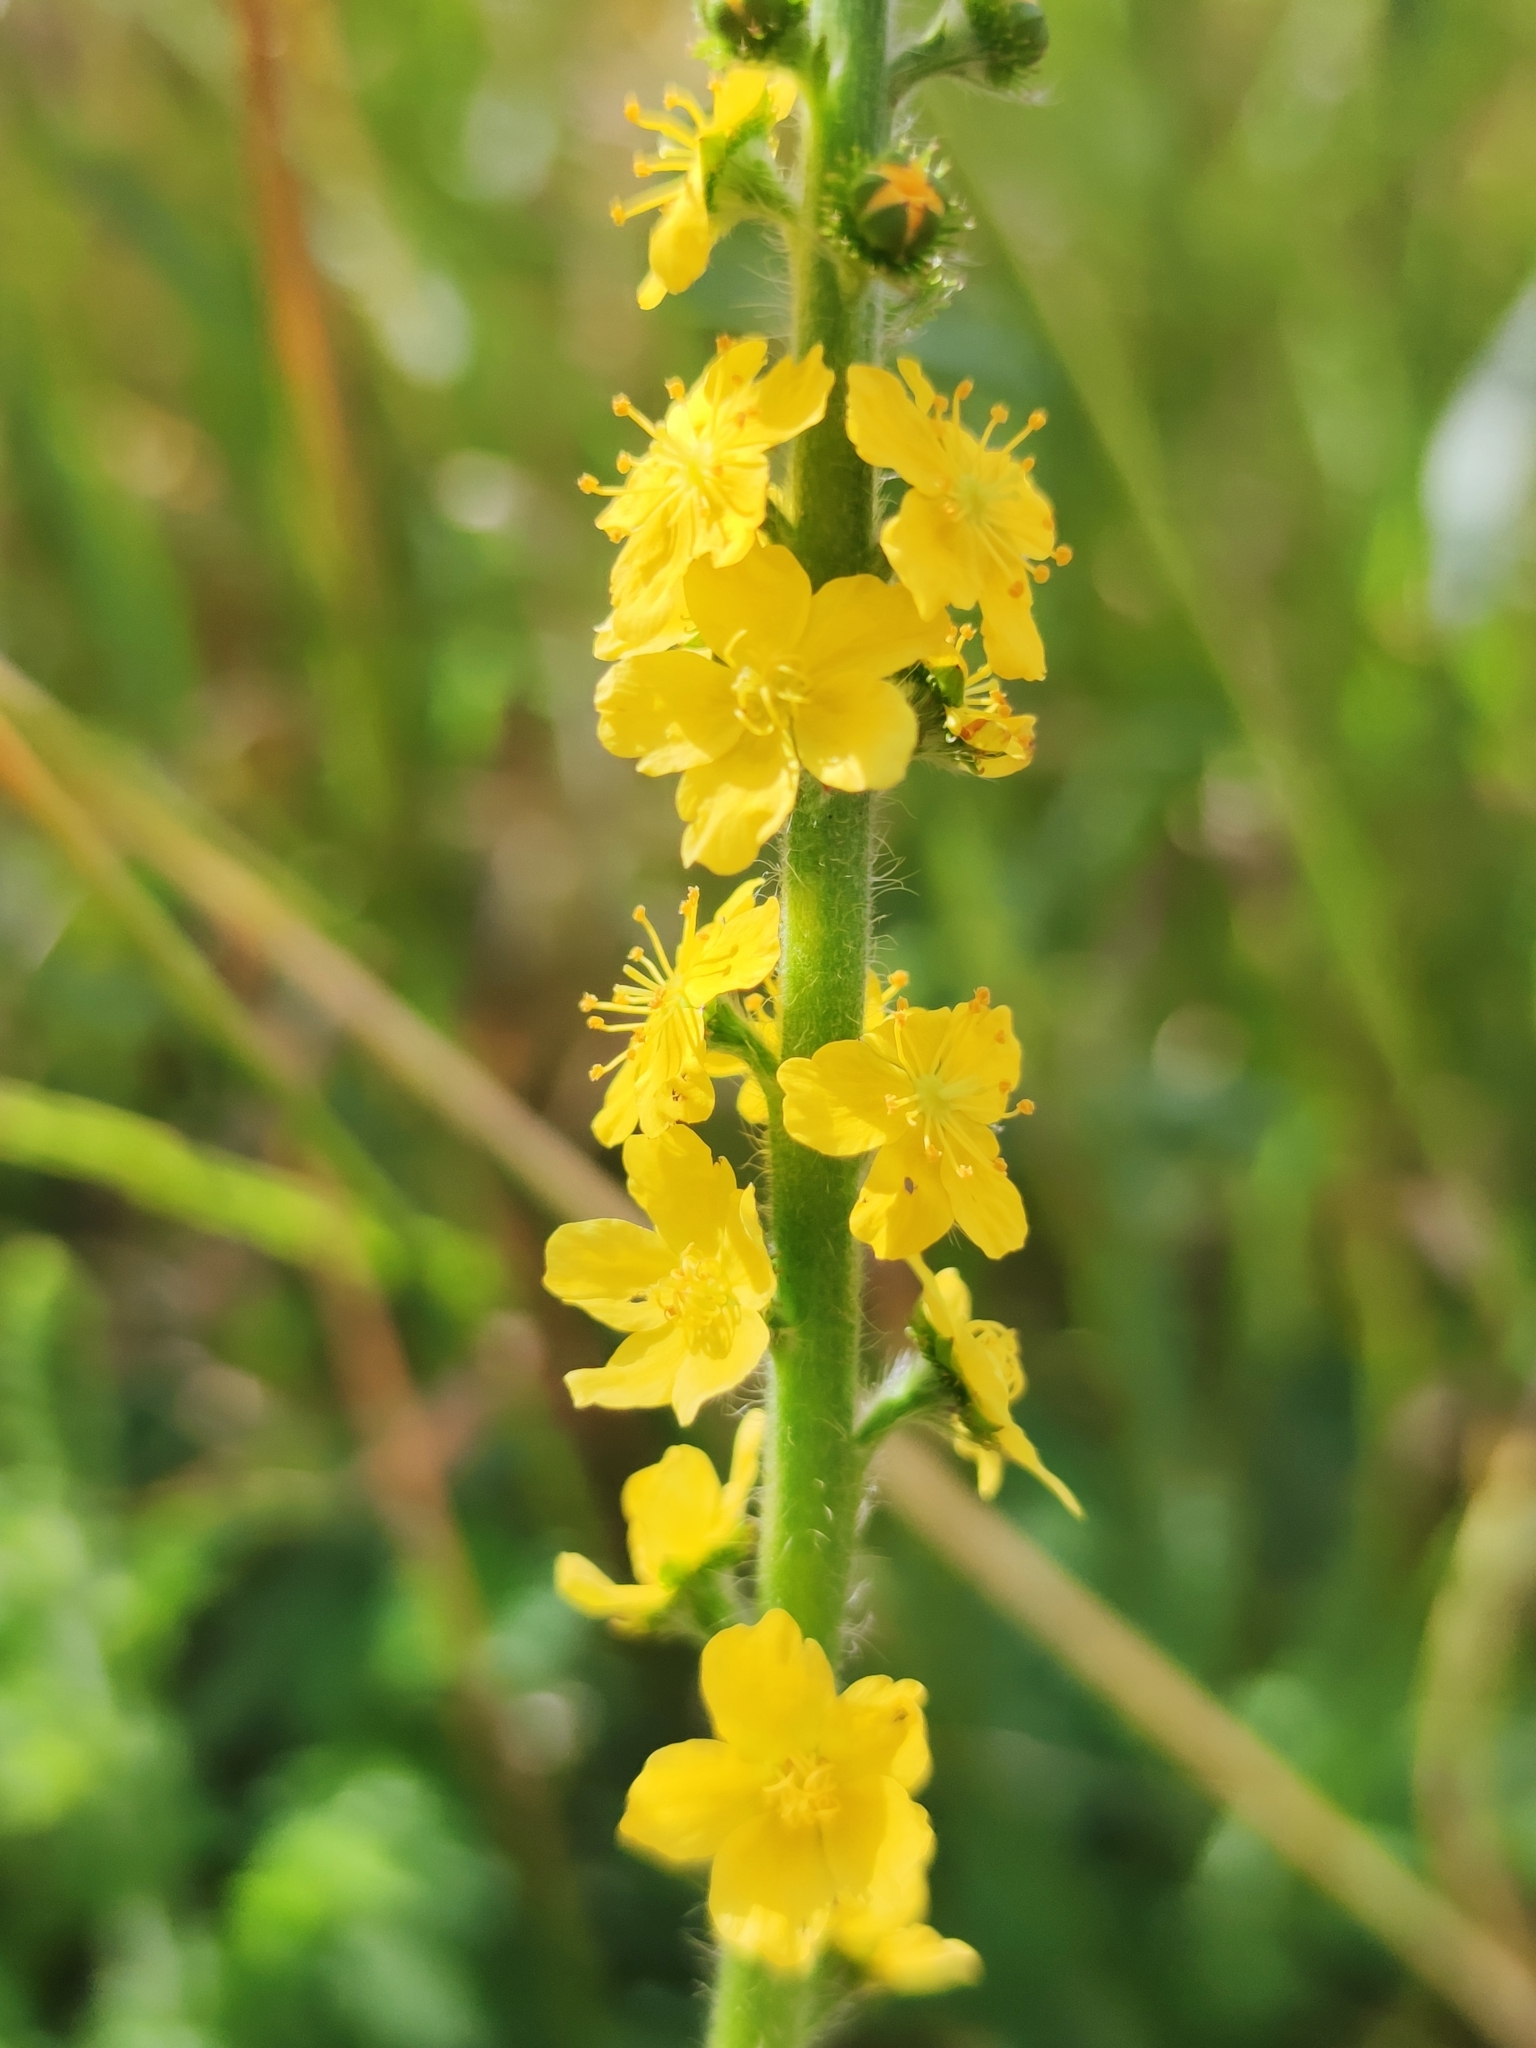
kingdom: Plantae
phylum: Tracheophyta
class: Magnoliopsida
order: Rosales
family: Rosaceae
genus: Agrimonia
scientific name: Agrimonia eupatoria
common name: Agrimony
